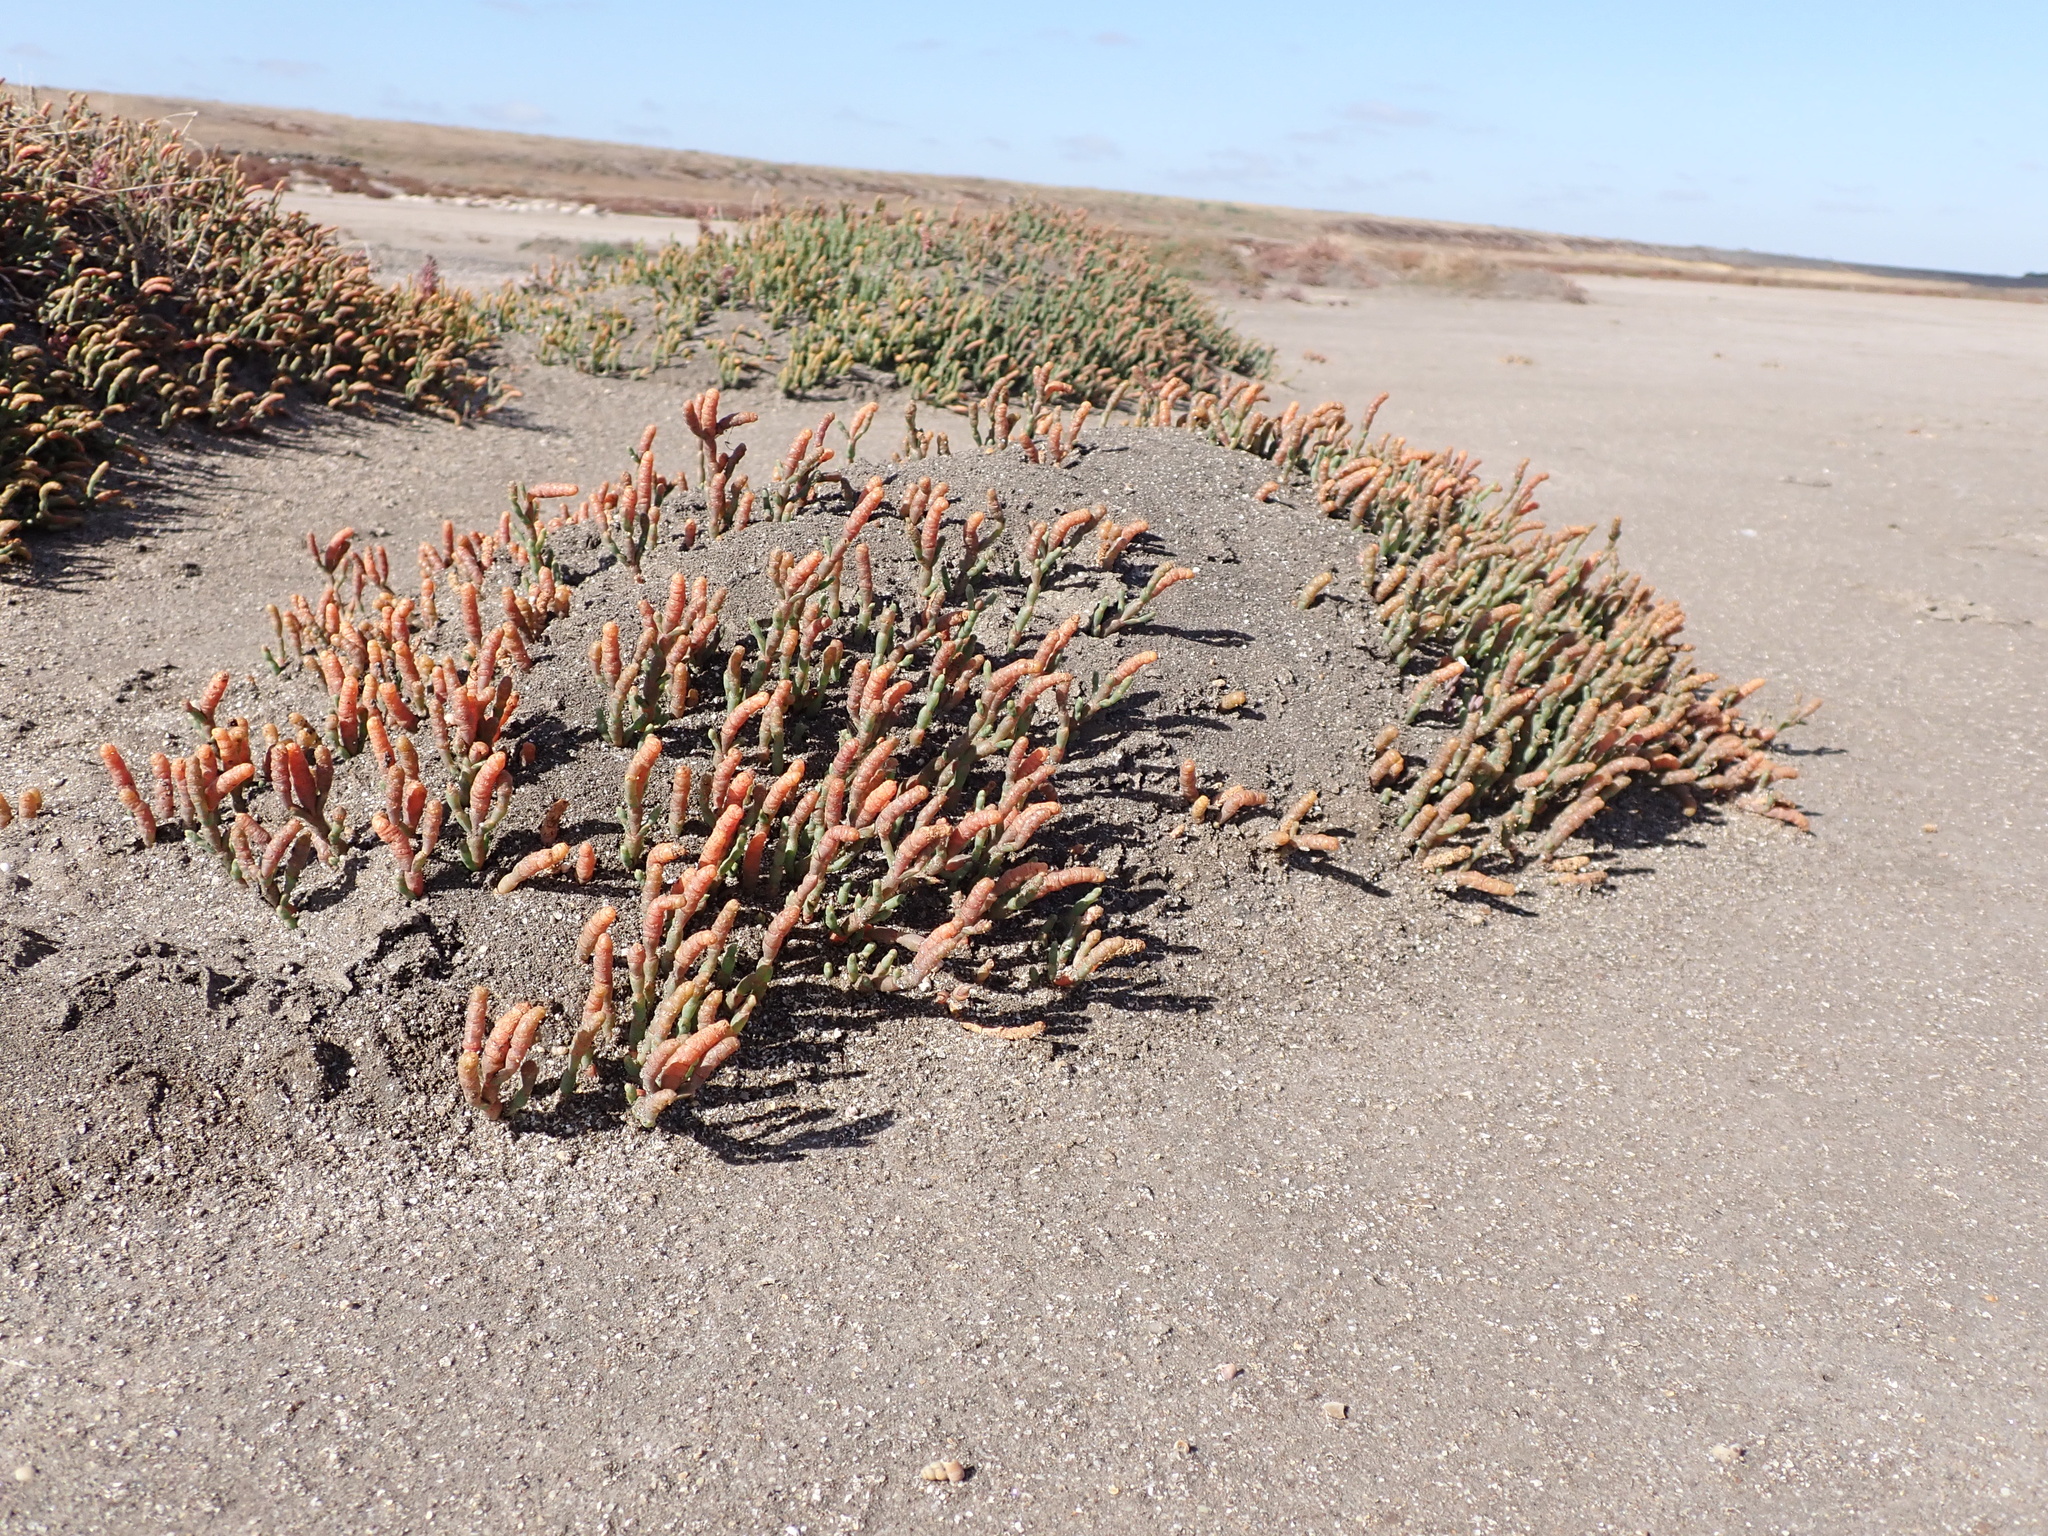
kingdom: Plantae
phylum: Tracheophyta
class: Magnoliopsida
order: Caryophyllales
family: Amaranthaceae
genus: Salicornia
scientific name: Salicornia quinqueflora
